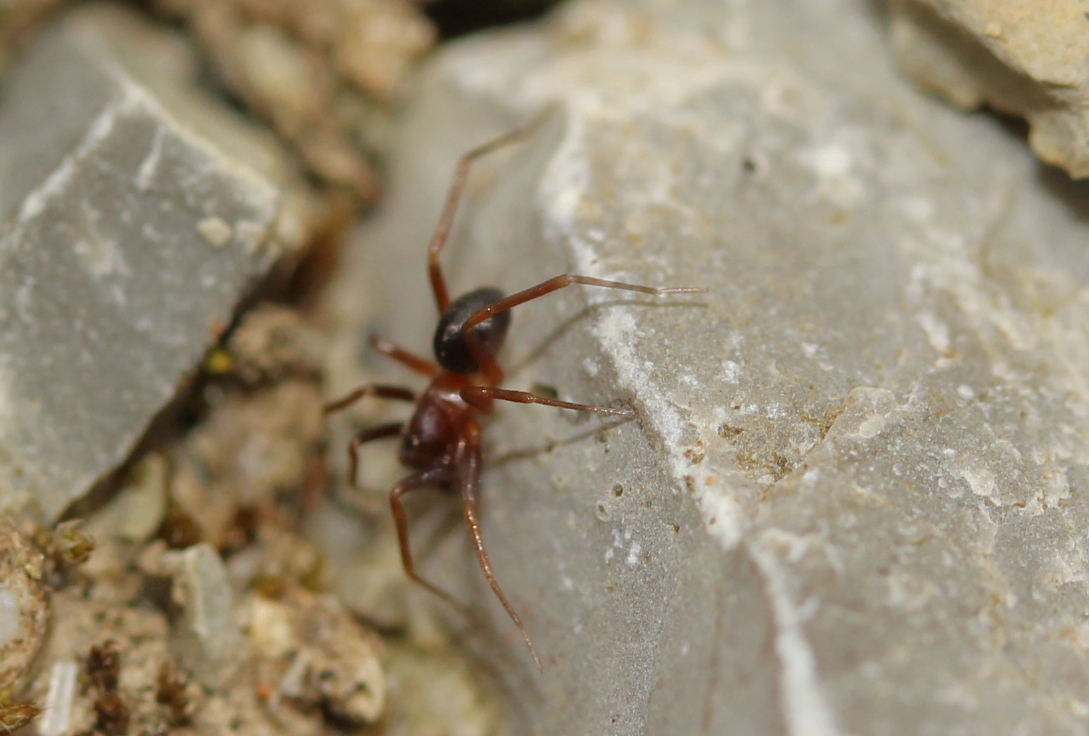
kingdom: Animalia
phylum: Arthropoda
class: Arachnida
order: Araneae
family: Zodariidae
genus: Zodarion
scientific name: Zodarion
